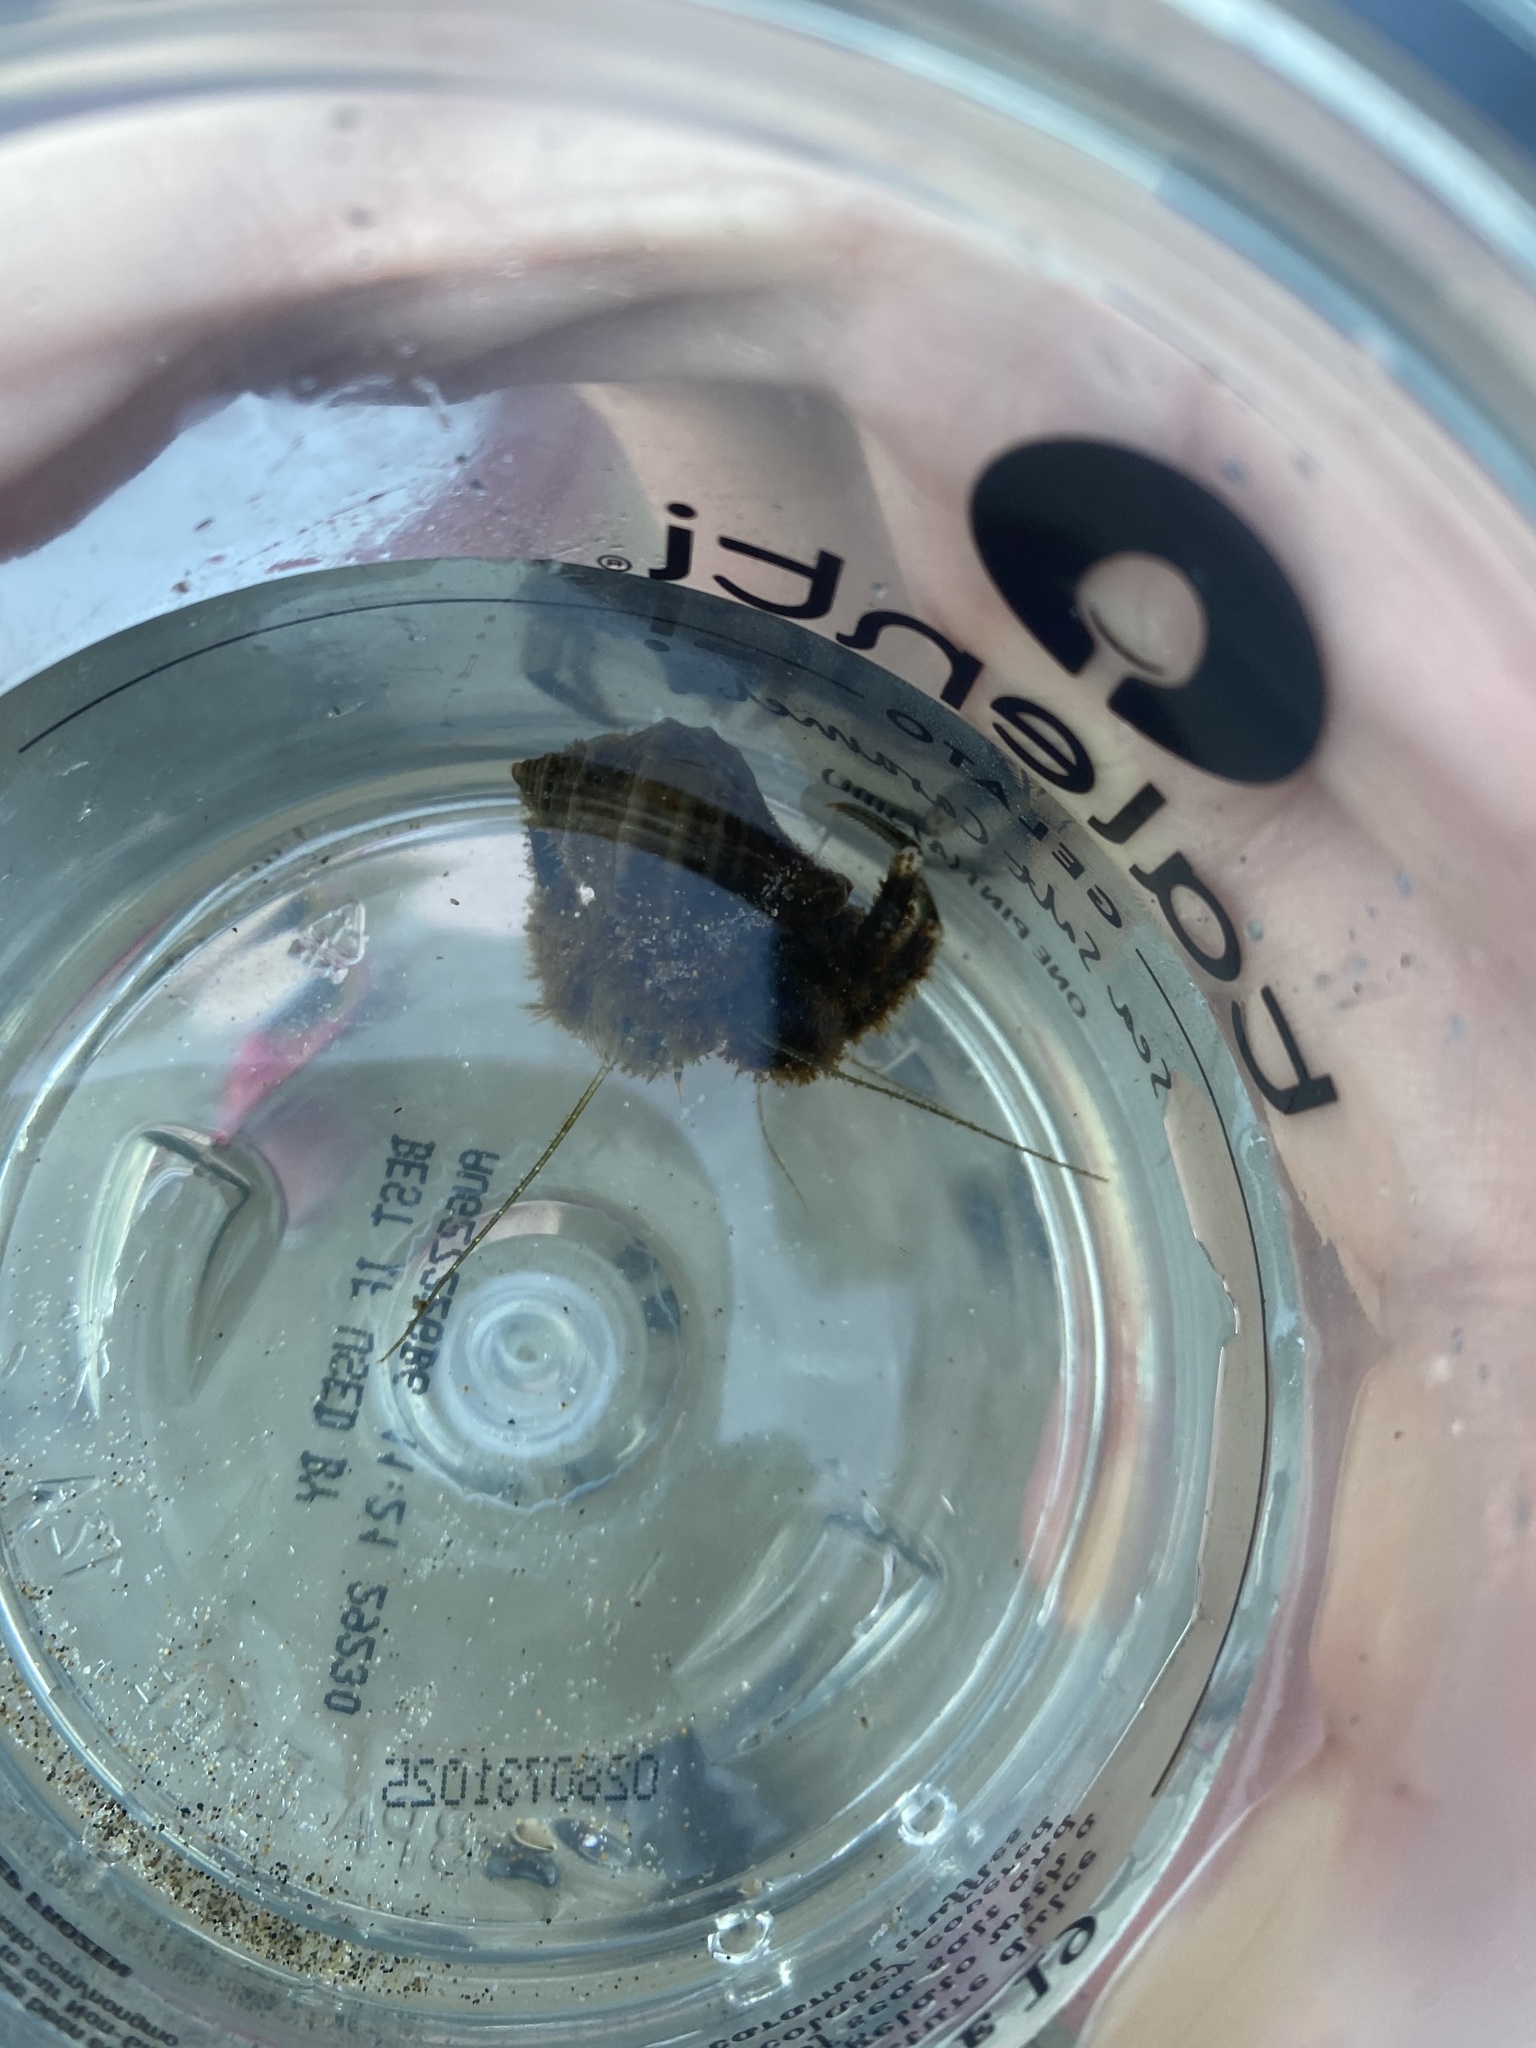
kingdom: Animalia
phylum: Arthropoda
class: Malacostraca
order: Decapoda
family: Paguridae
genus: Pagurus
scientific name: Pagurus hirsutiusculus
